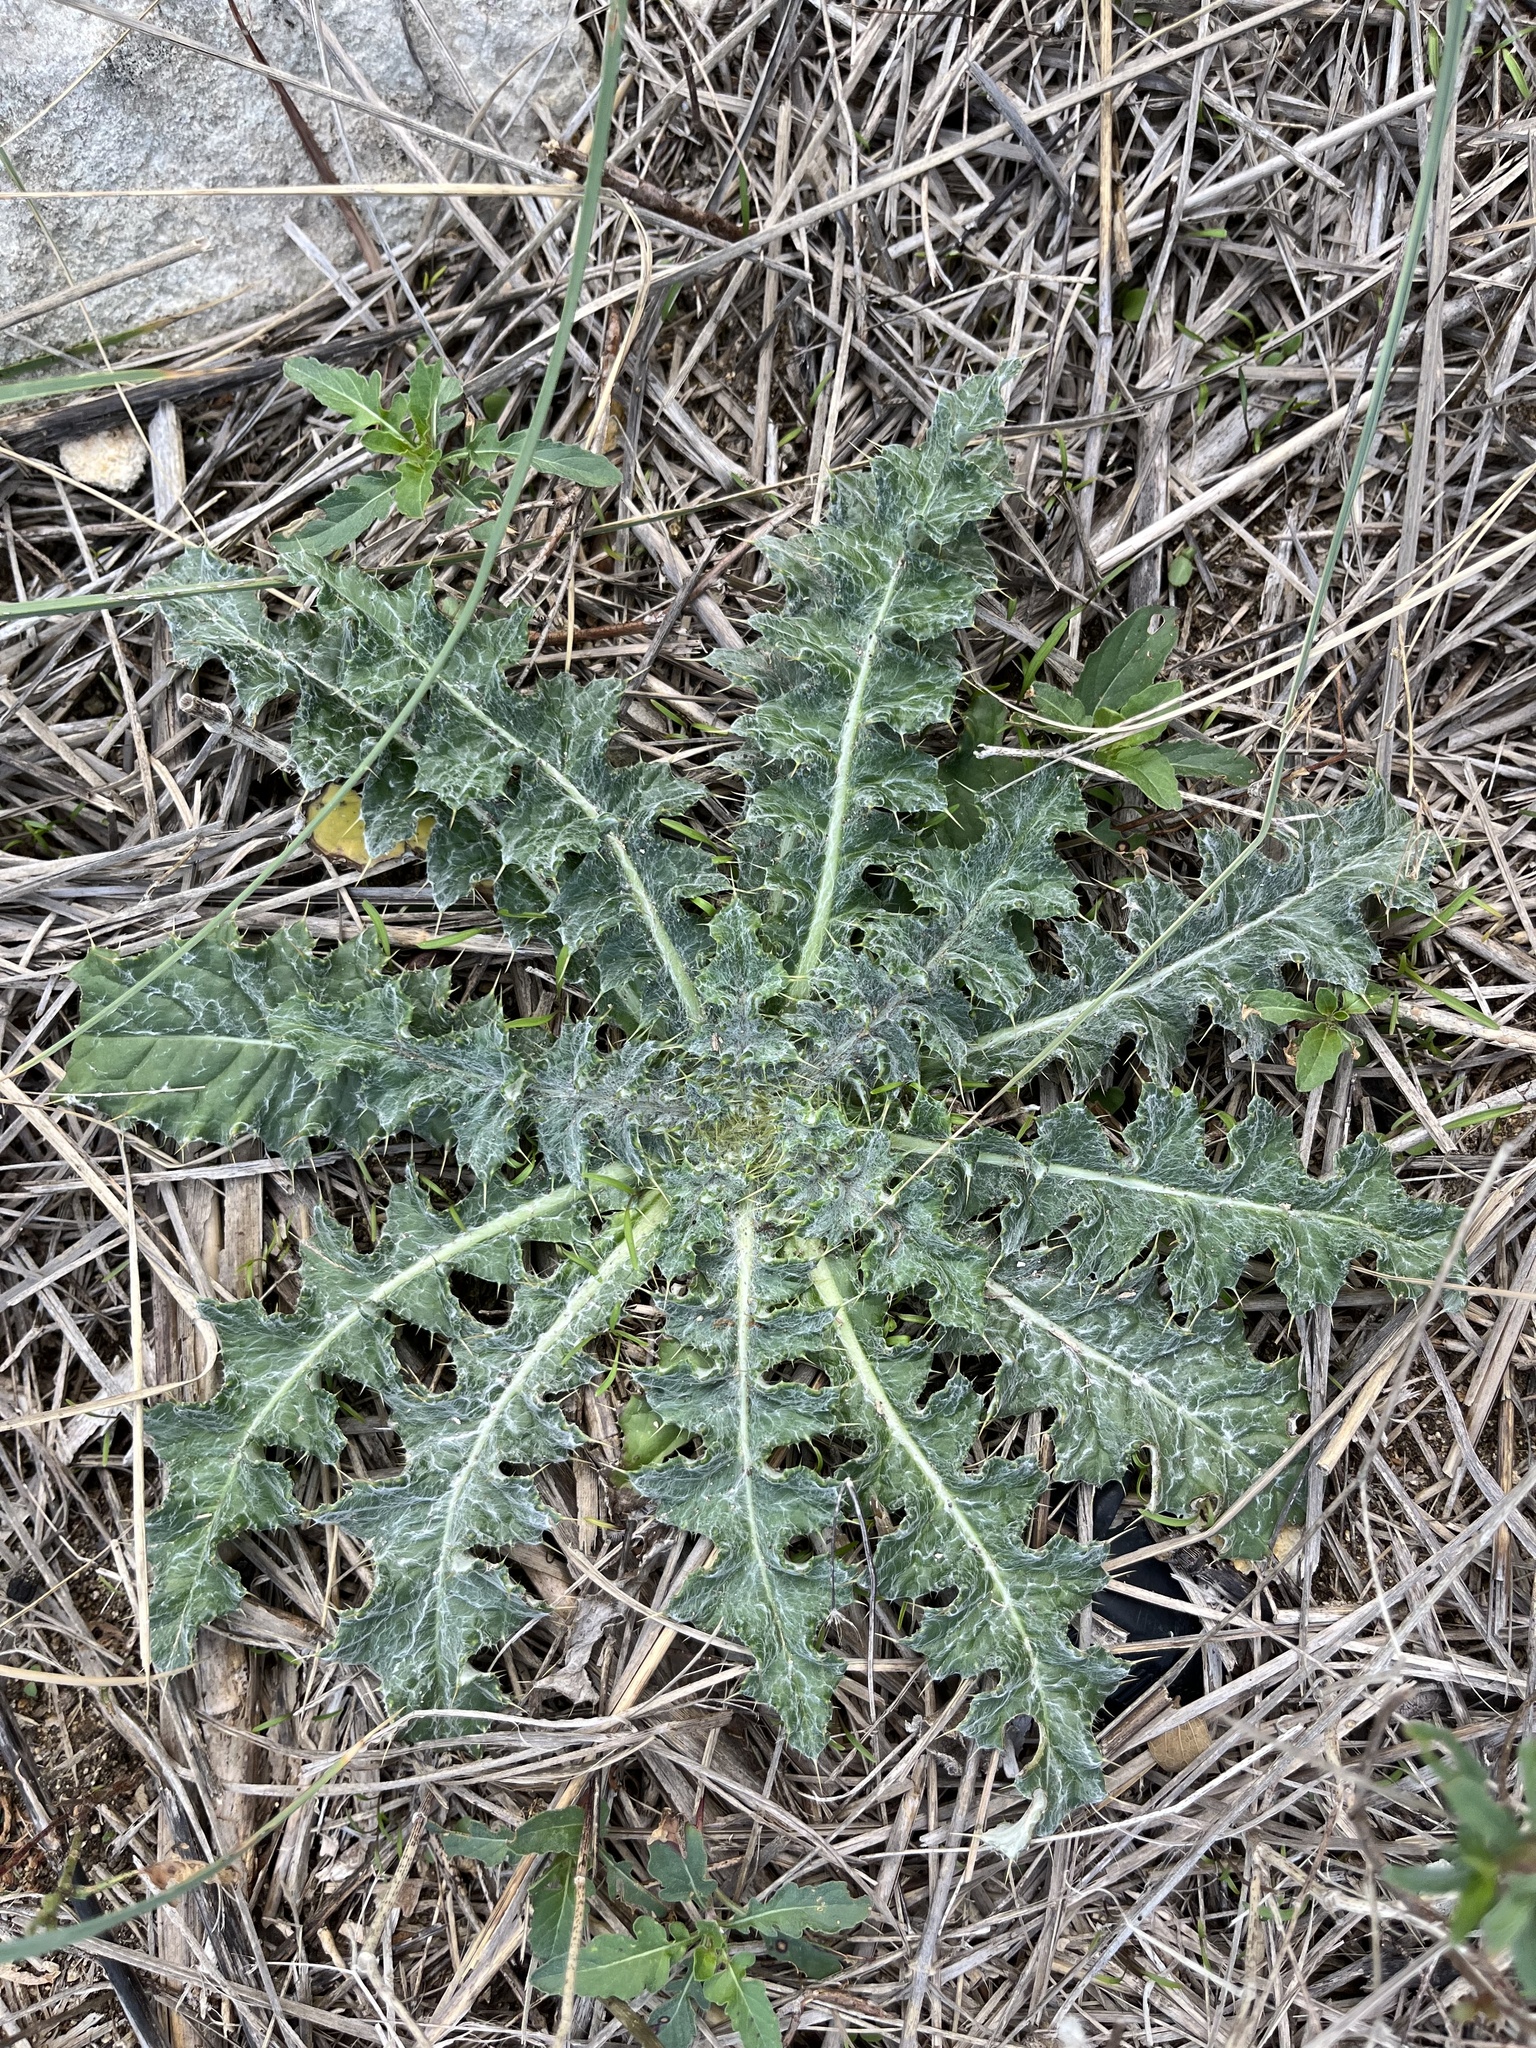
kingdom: Plantae
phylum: Tracheophyta
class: Magnoliopsida
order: Asterales
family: Asteraceae
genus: Cirsium
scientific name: Cirsium texanum
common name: Texas purple thistle
